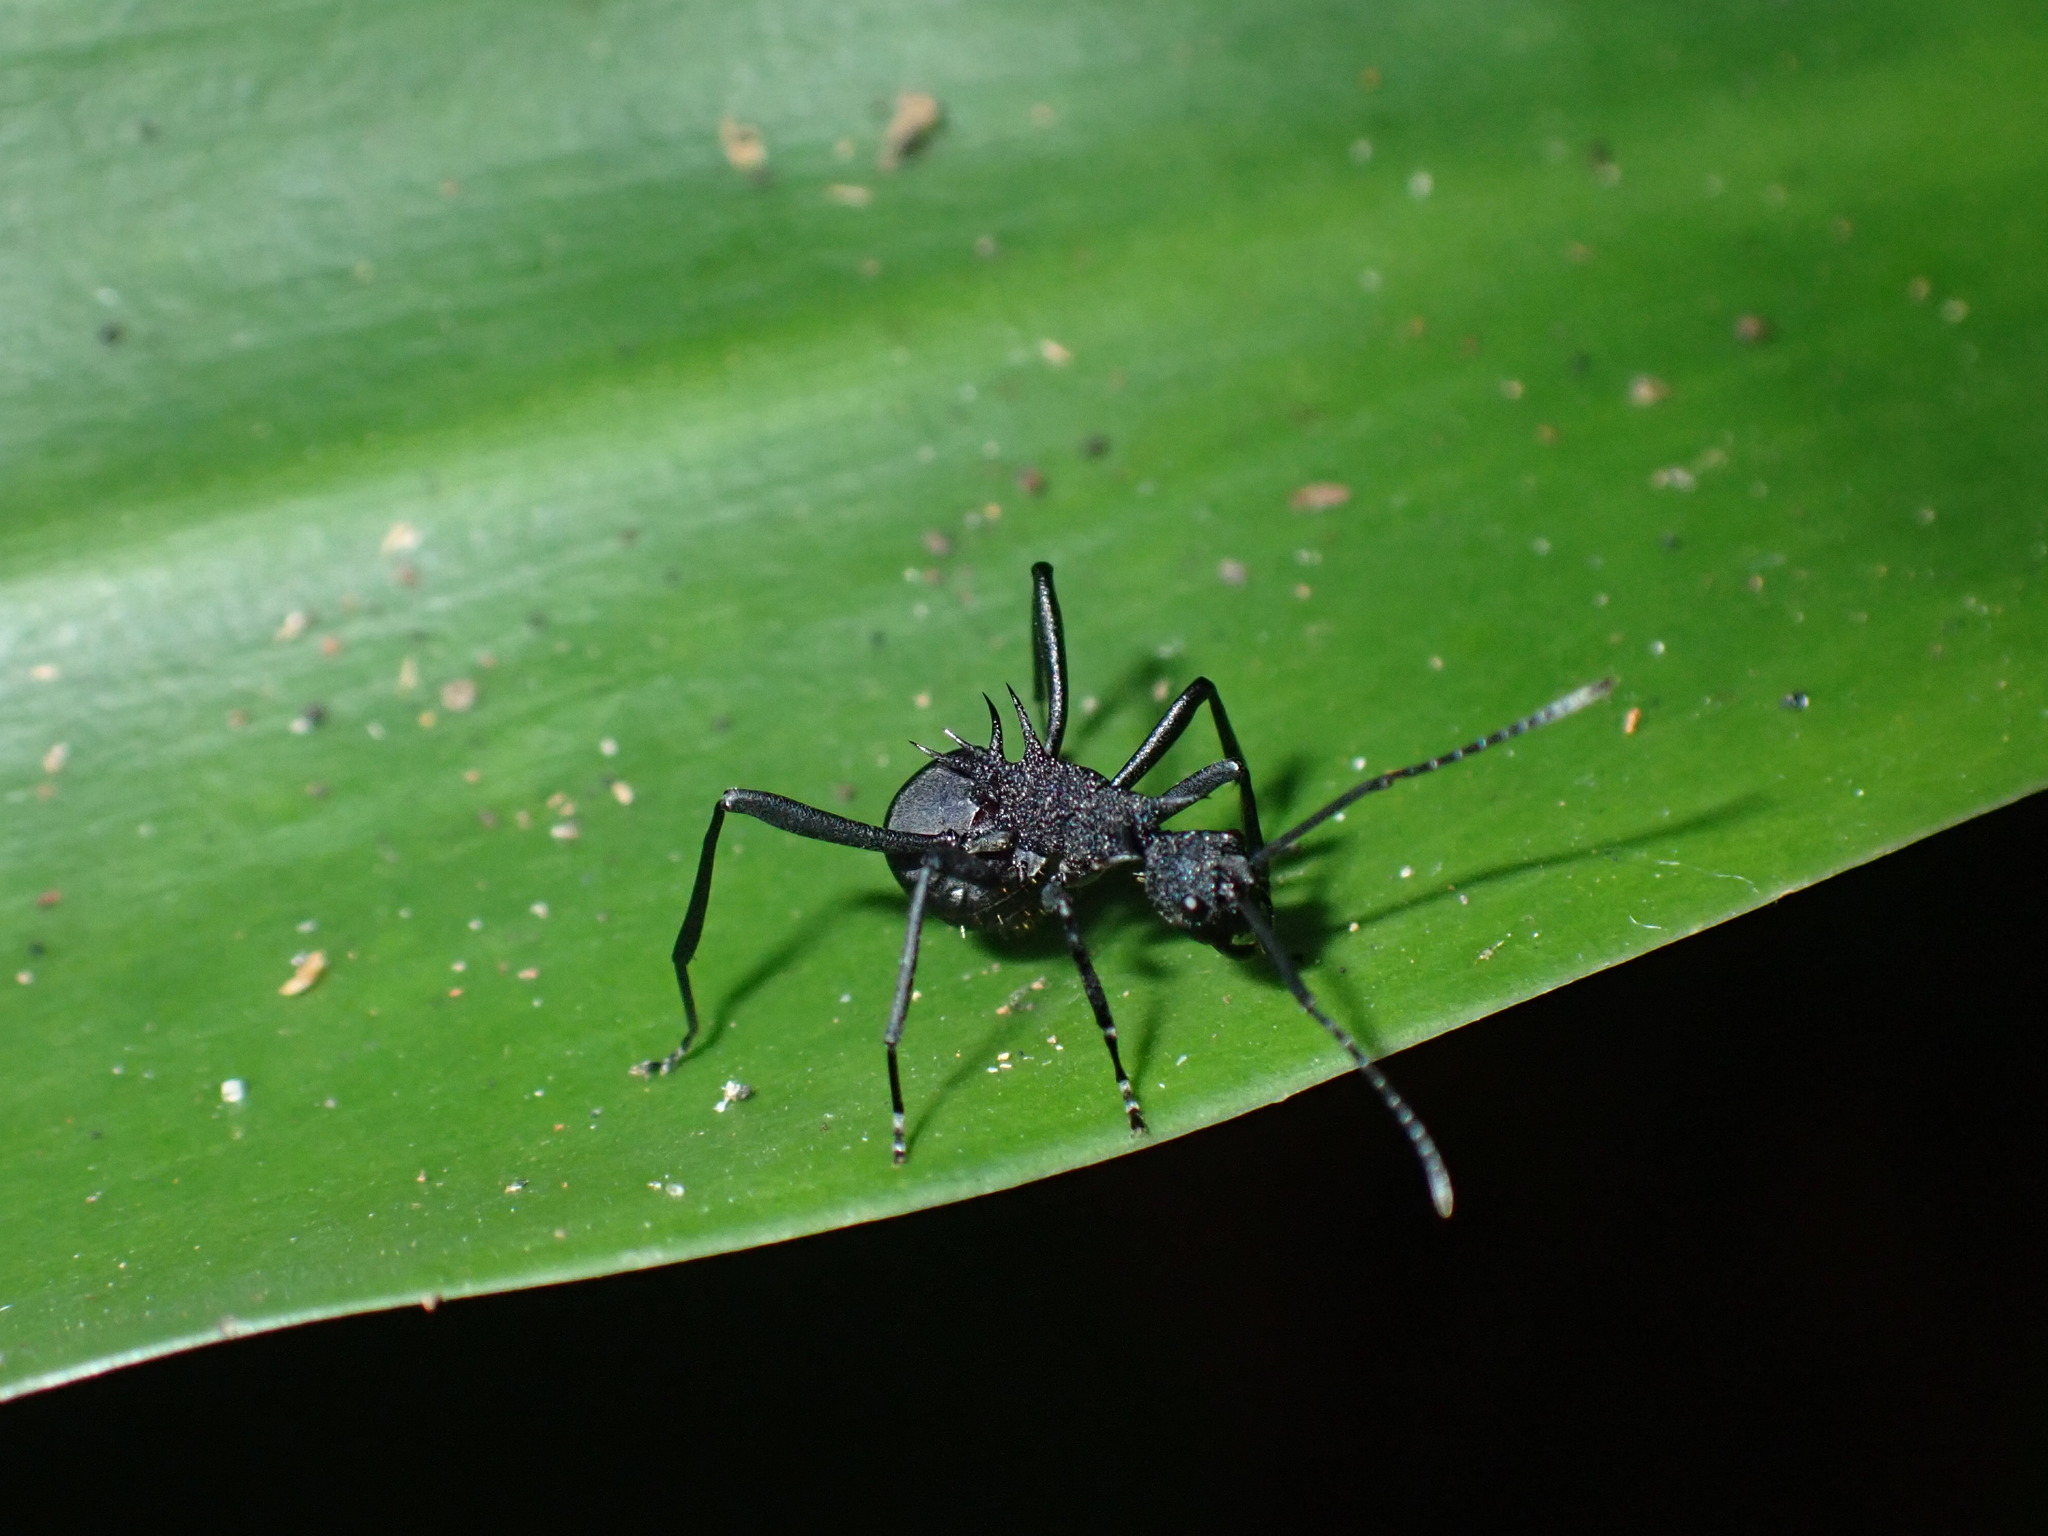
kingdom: Animalia
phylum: Arthropoda
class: Insecta
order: Hymenoptera
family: Formicidae
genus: Polyrhachis
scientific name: Polyrhachis armata
